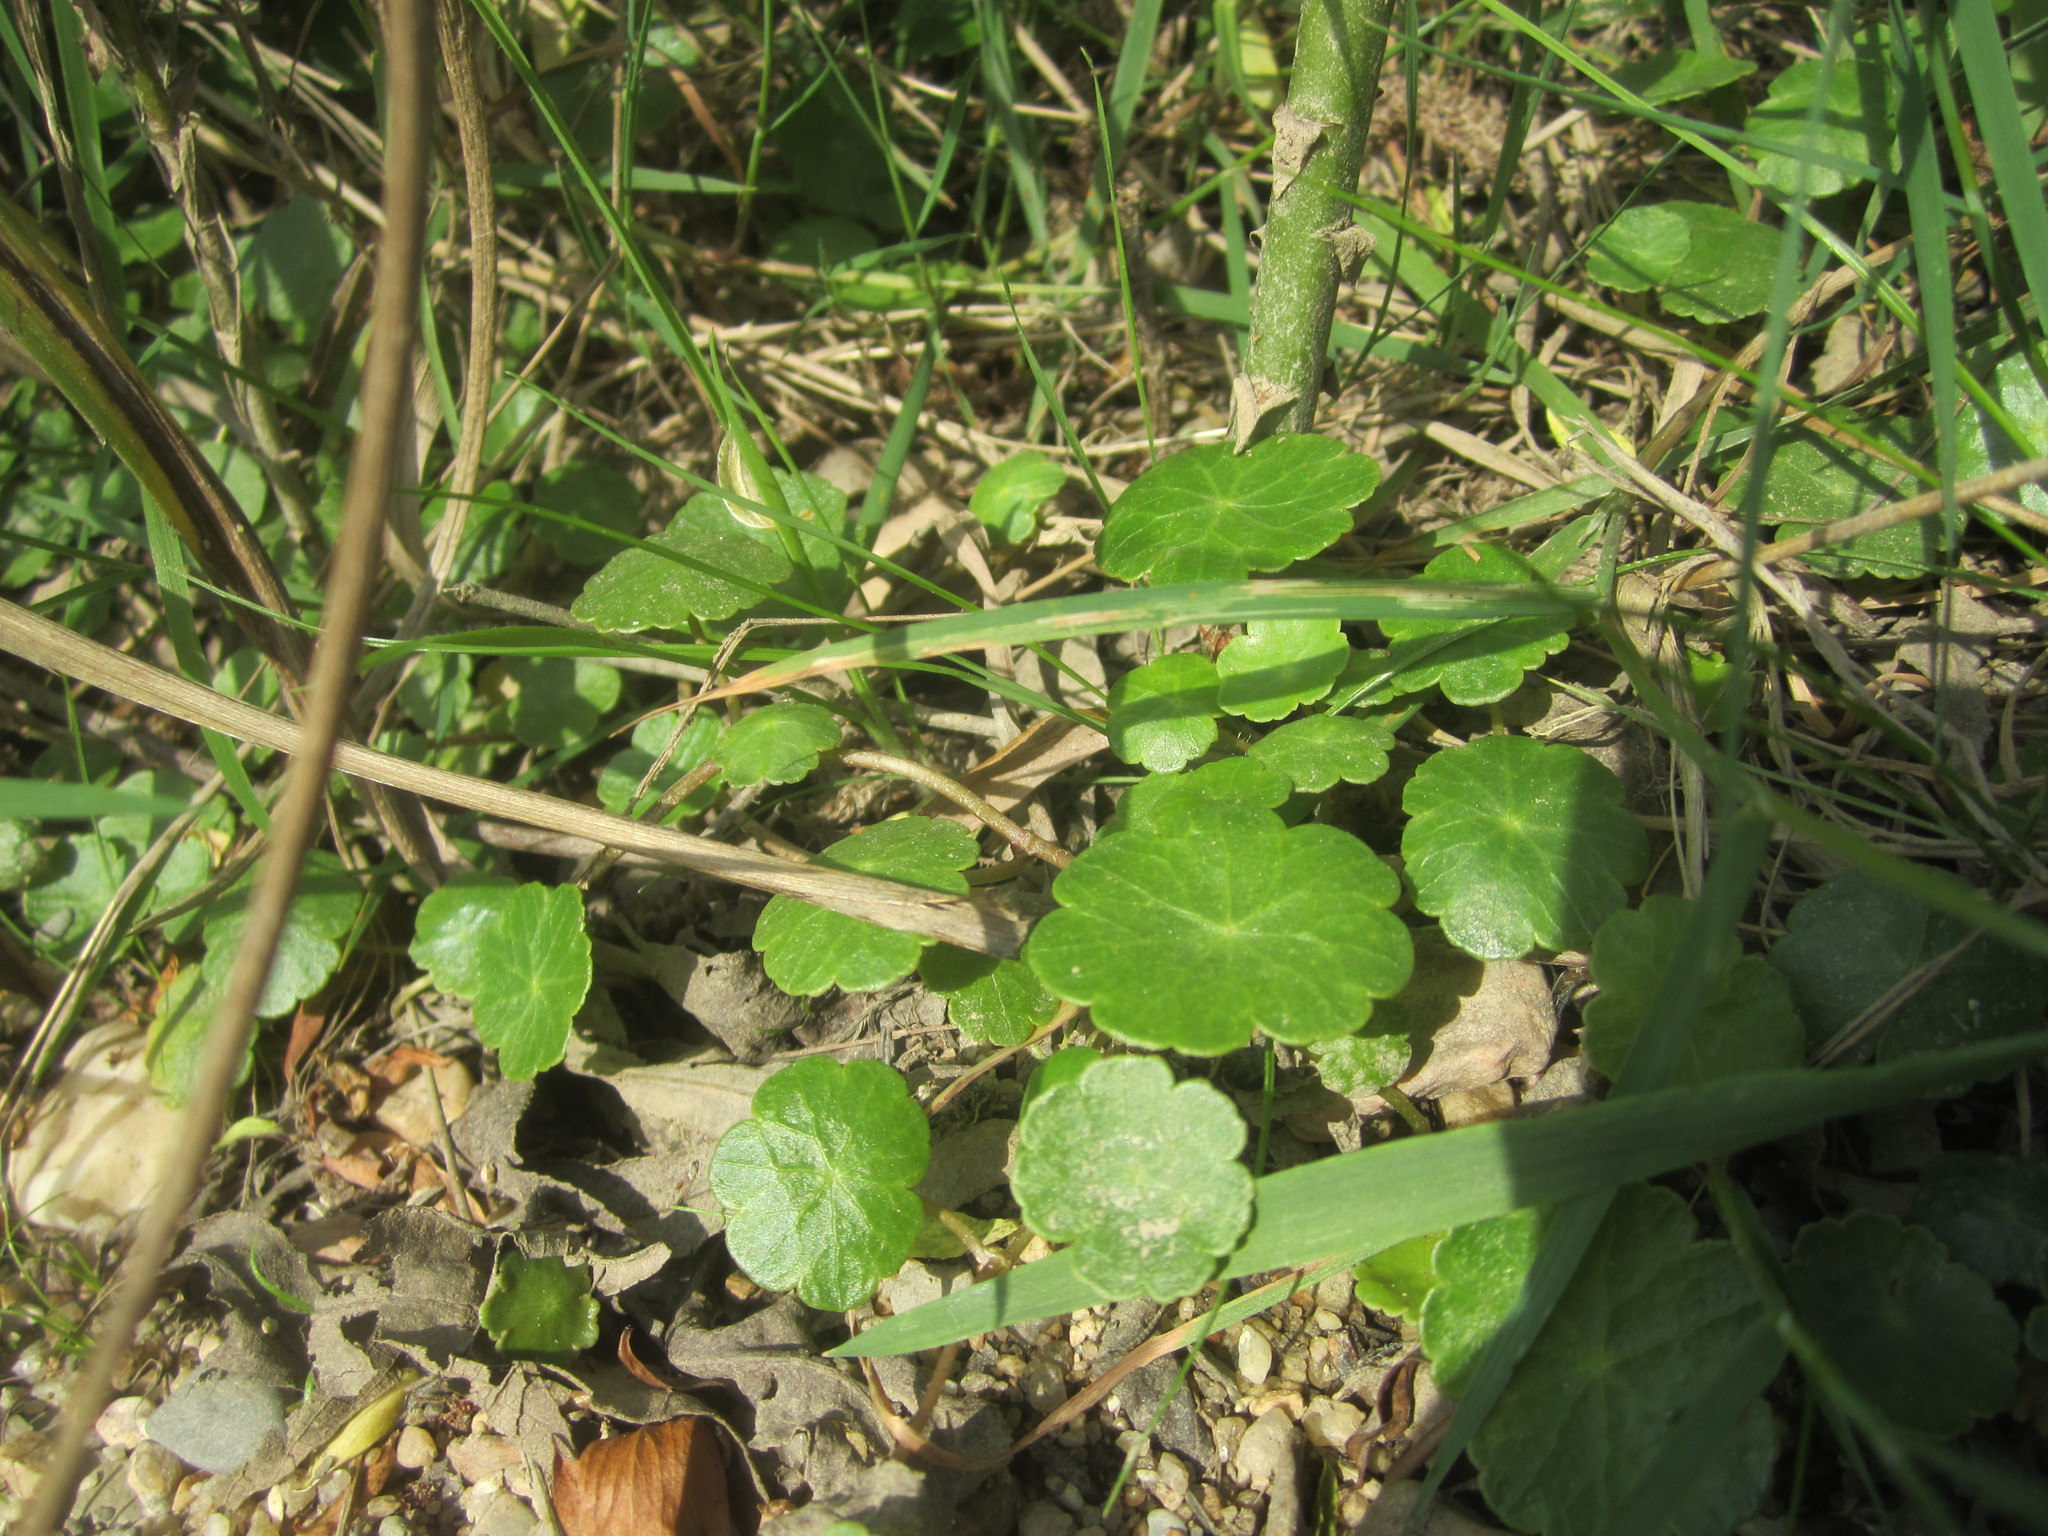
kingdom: Plantae
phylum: Tracheophyta
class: Magnoliopsida
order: Apiales
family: Araliaceae
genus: Hydrocotyle
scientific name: Hydrocotyle vulgaris
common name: Marsh pennywort
